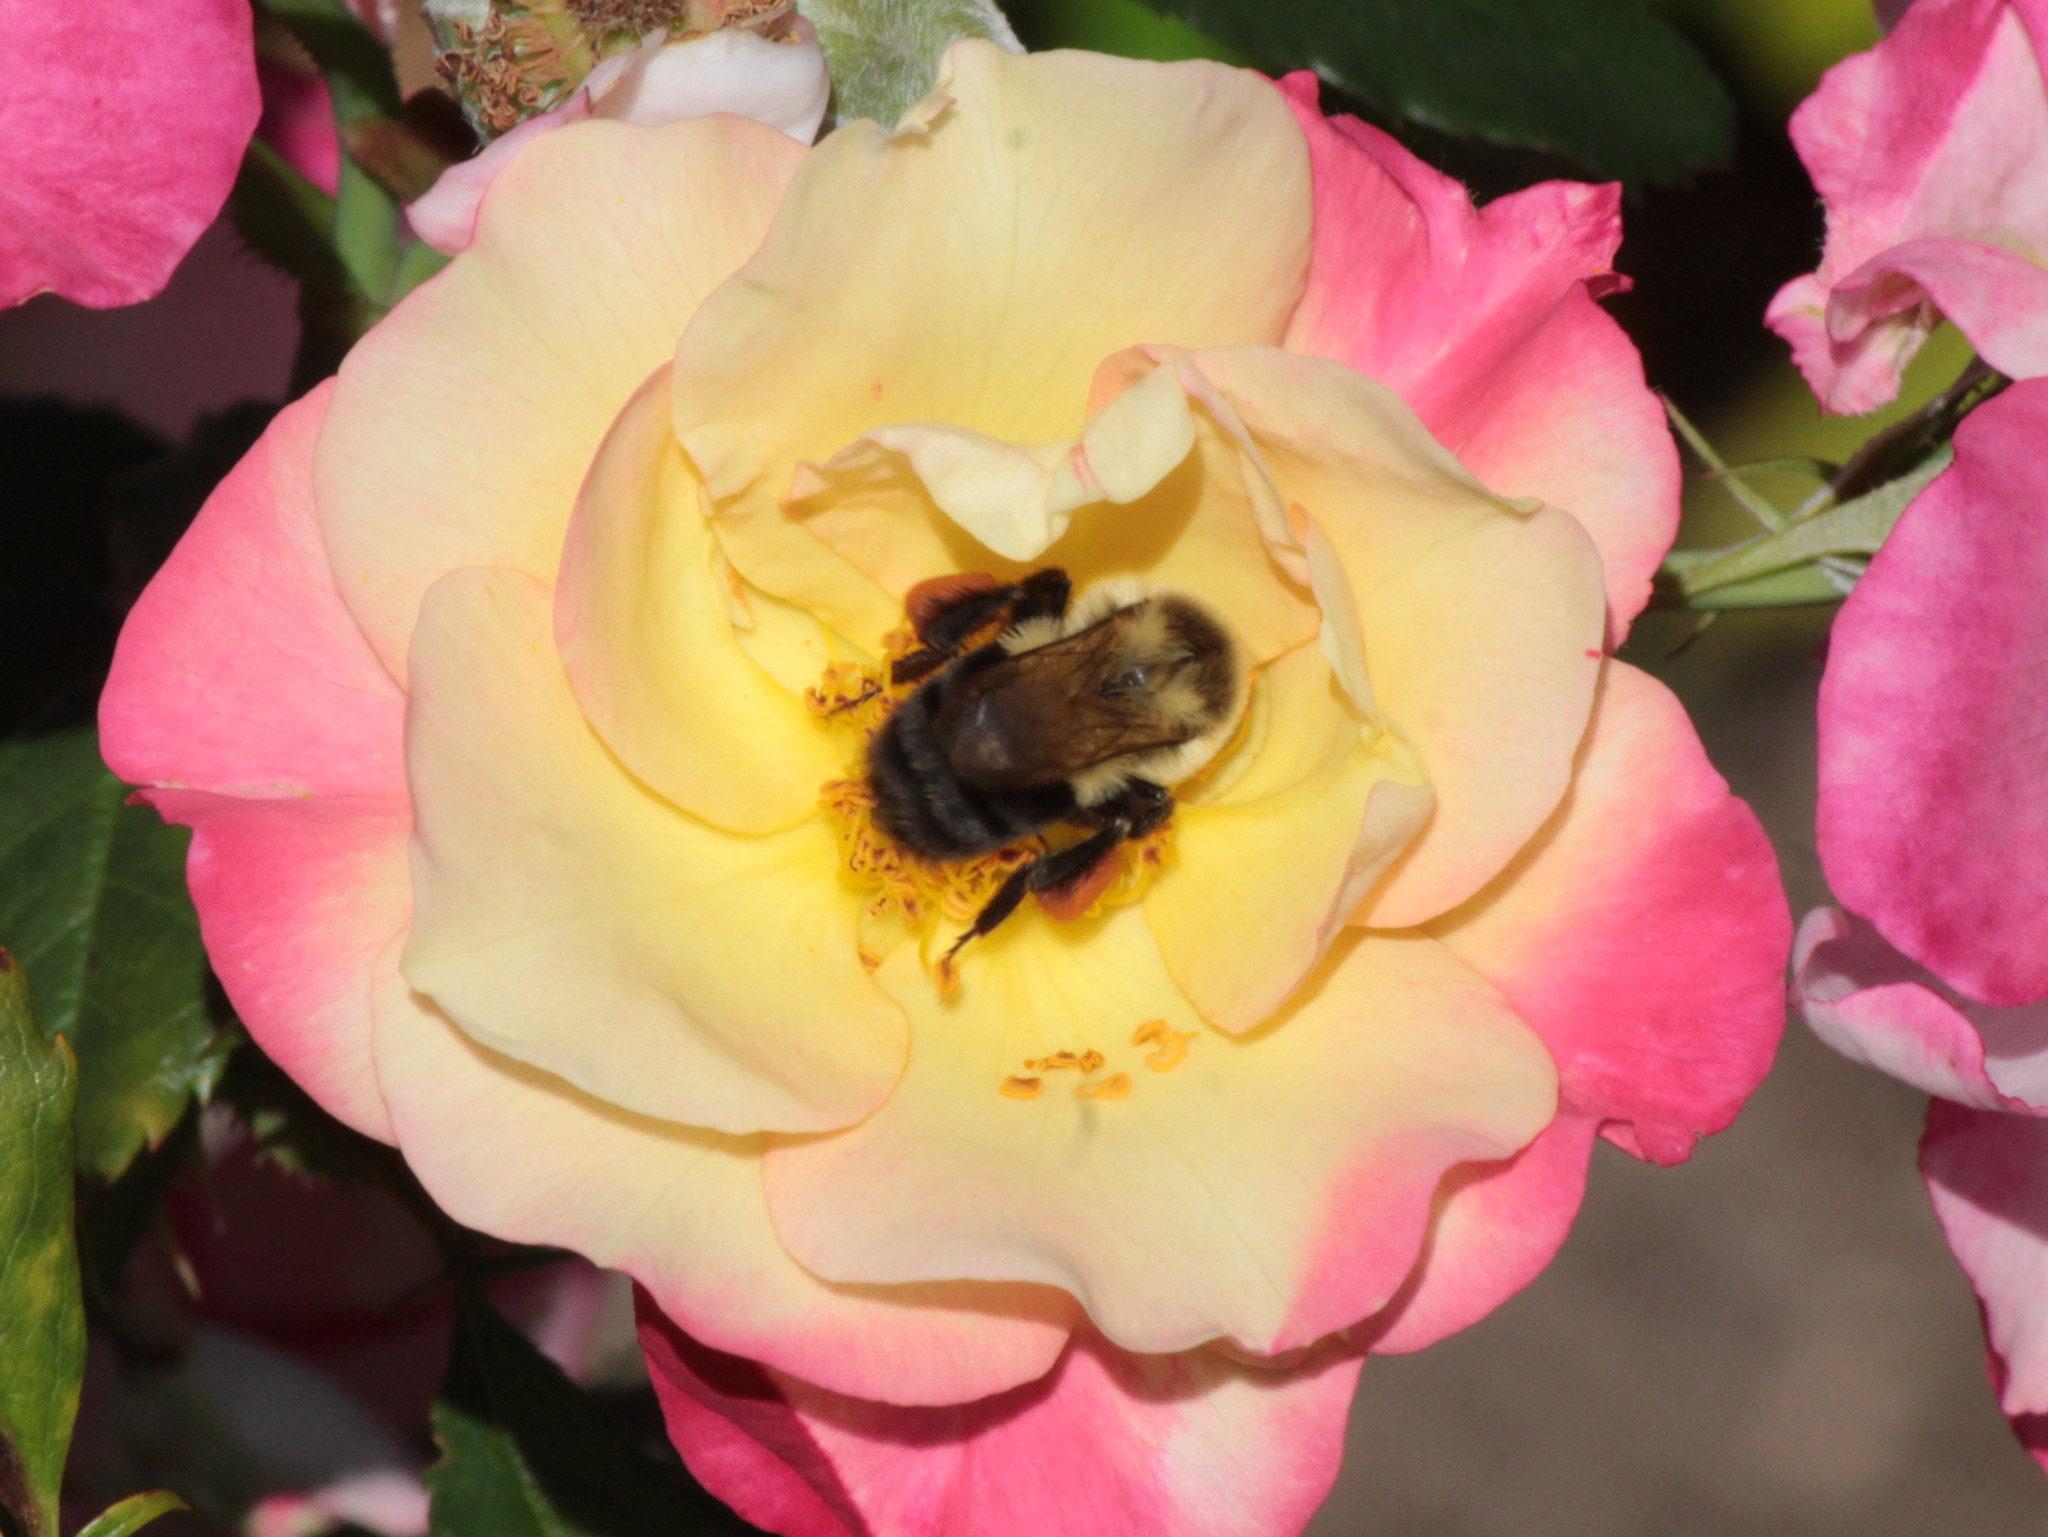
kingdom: Animalia
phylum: Arthropoda
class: Insecta
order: Hymenoptera
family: Apidae
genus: Bombus
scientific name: Bombus impatiens
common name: Common eastern bumble bee
